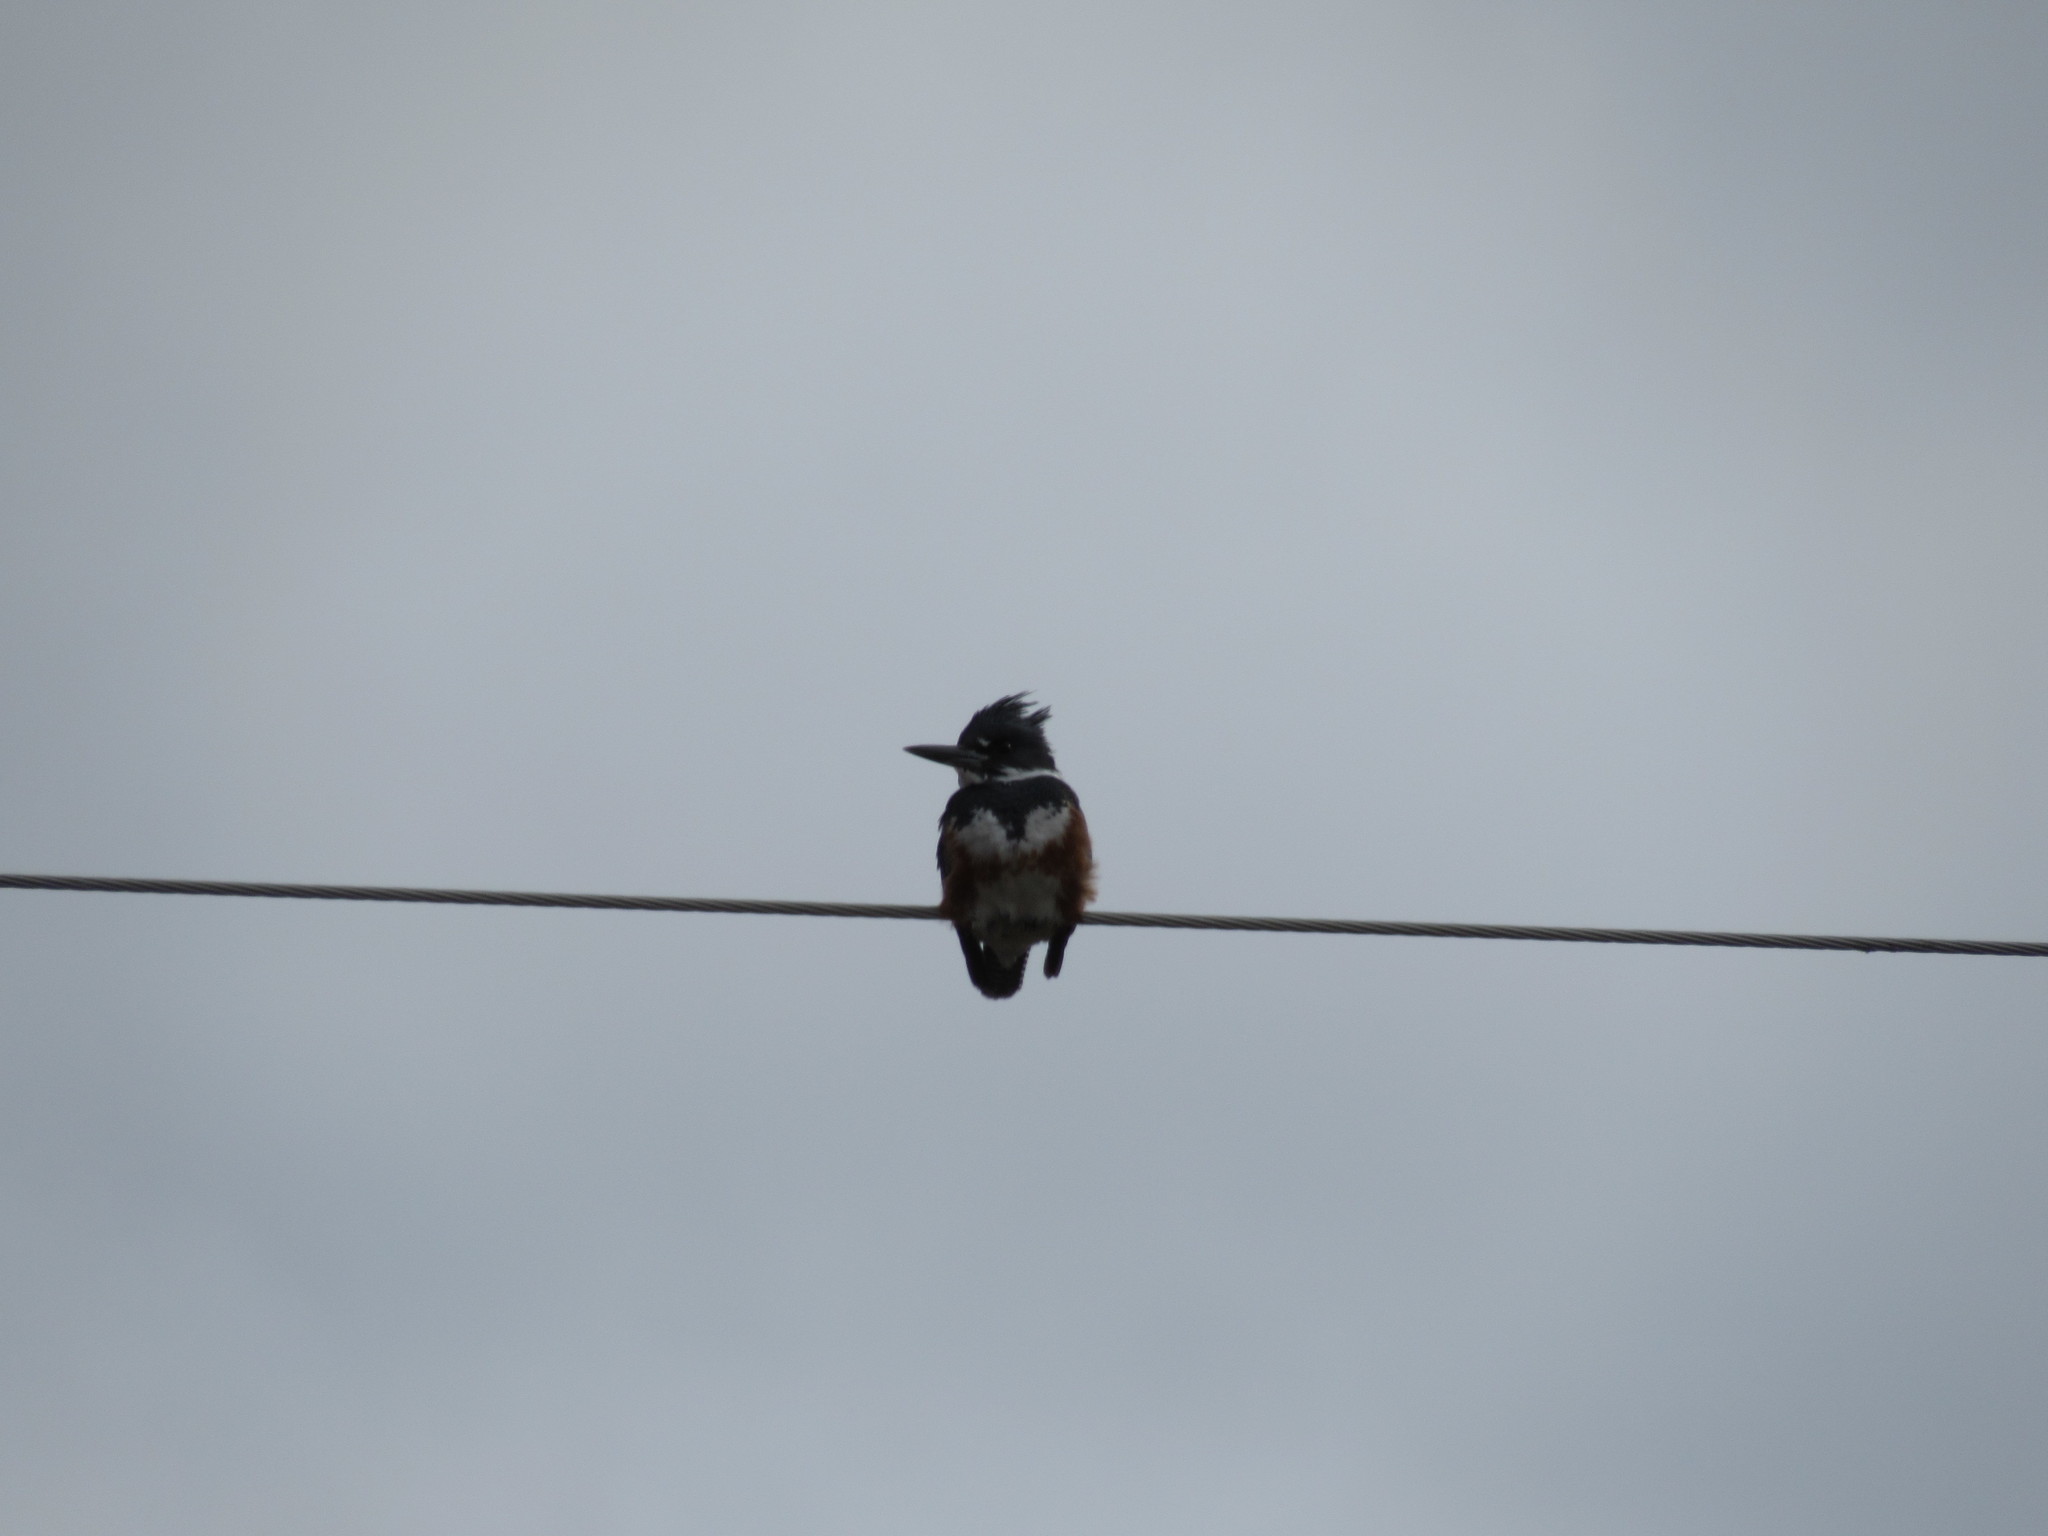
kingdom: Animalia
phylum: Chordata
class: Aves
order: Coraciiformes
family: Alcedinidae
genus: Megaceryle
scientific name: Megaceryle alcyon
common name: Belted kingfisher
